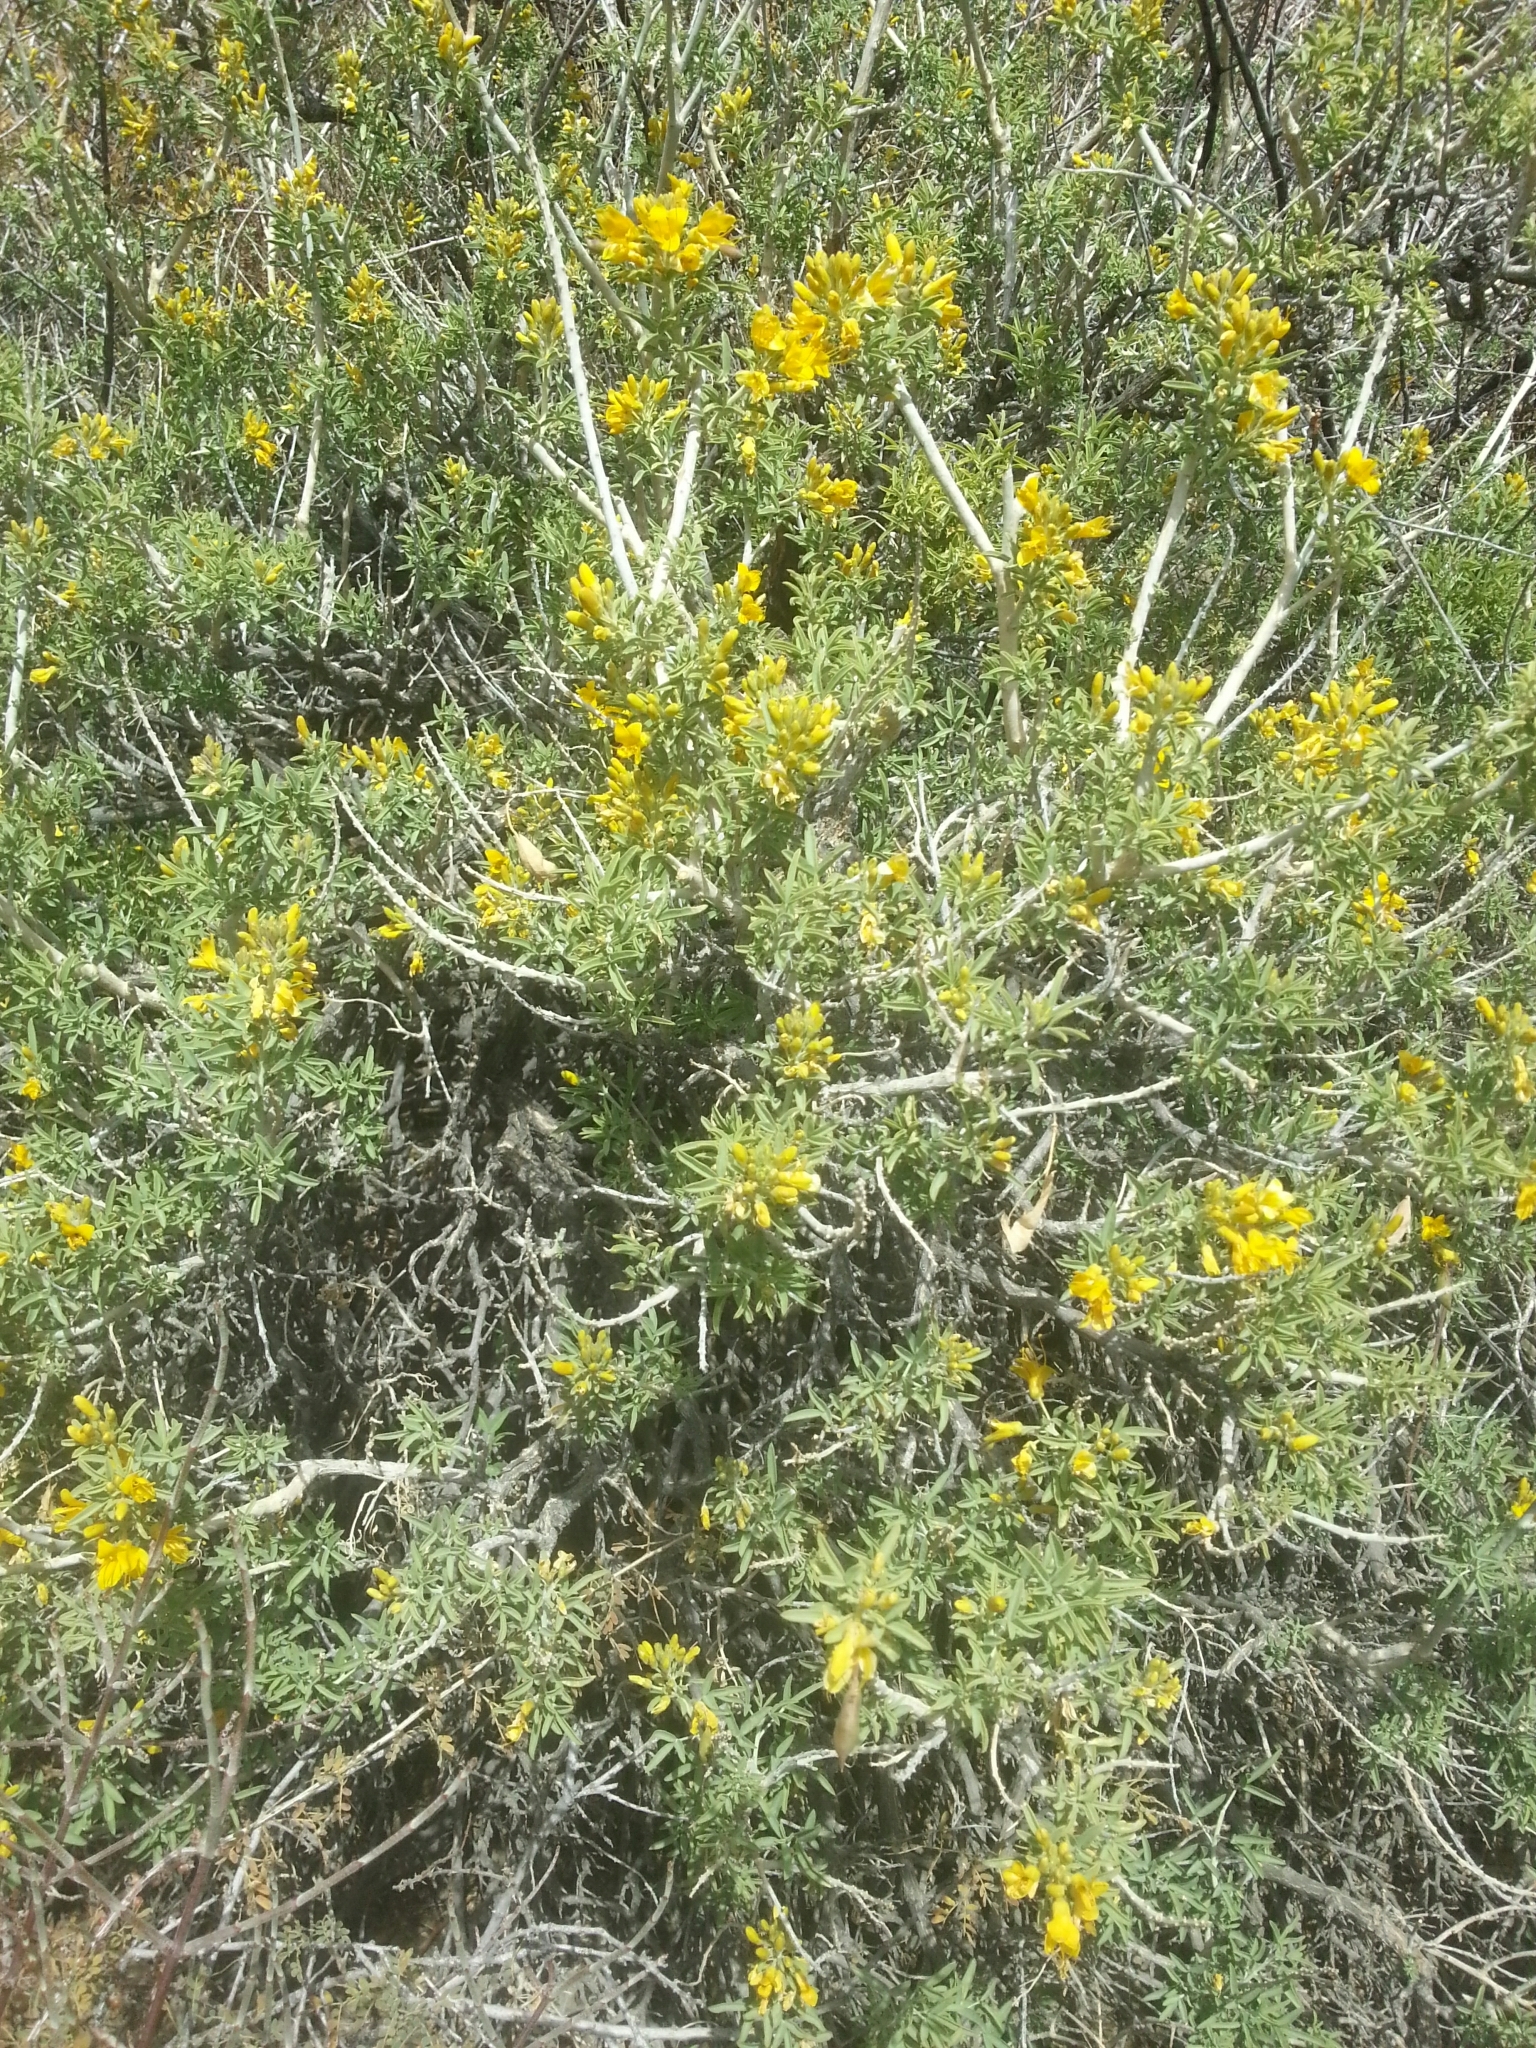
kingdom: Plantae
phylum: Tracheophyta
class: Magnoliopsida
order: Brassicales
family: Cleomaceae
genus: Cleomella
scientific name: Cleomella arborea
